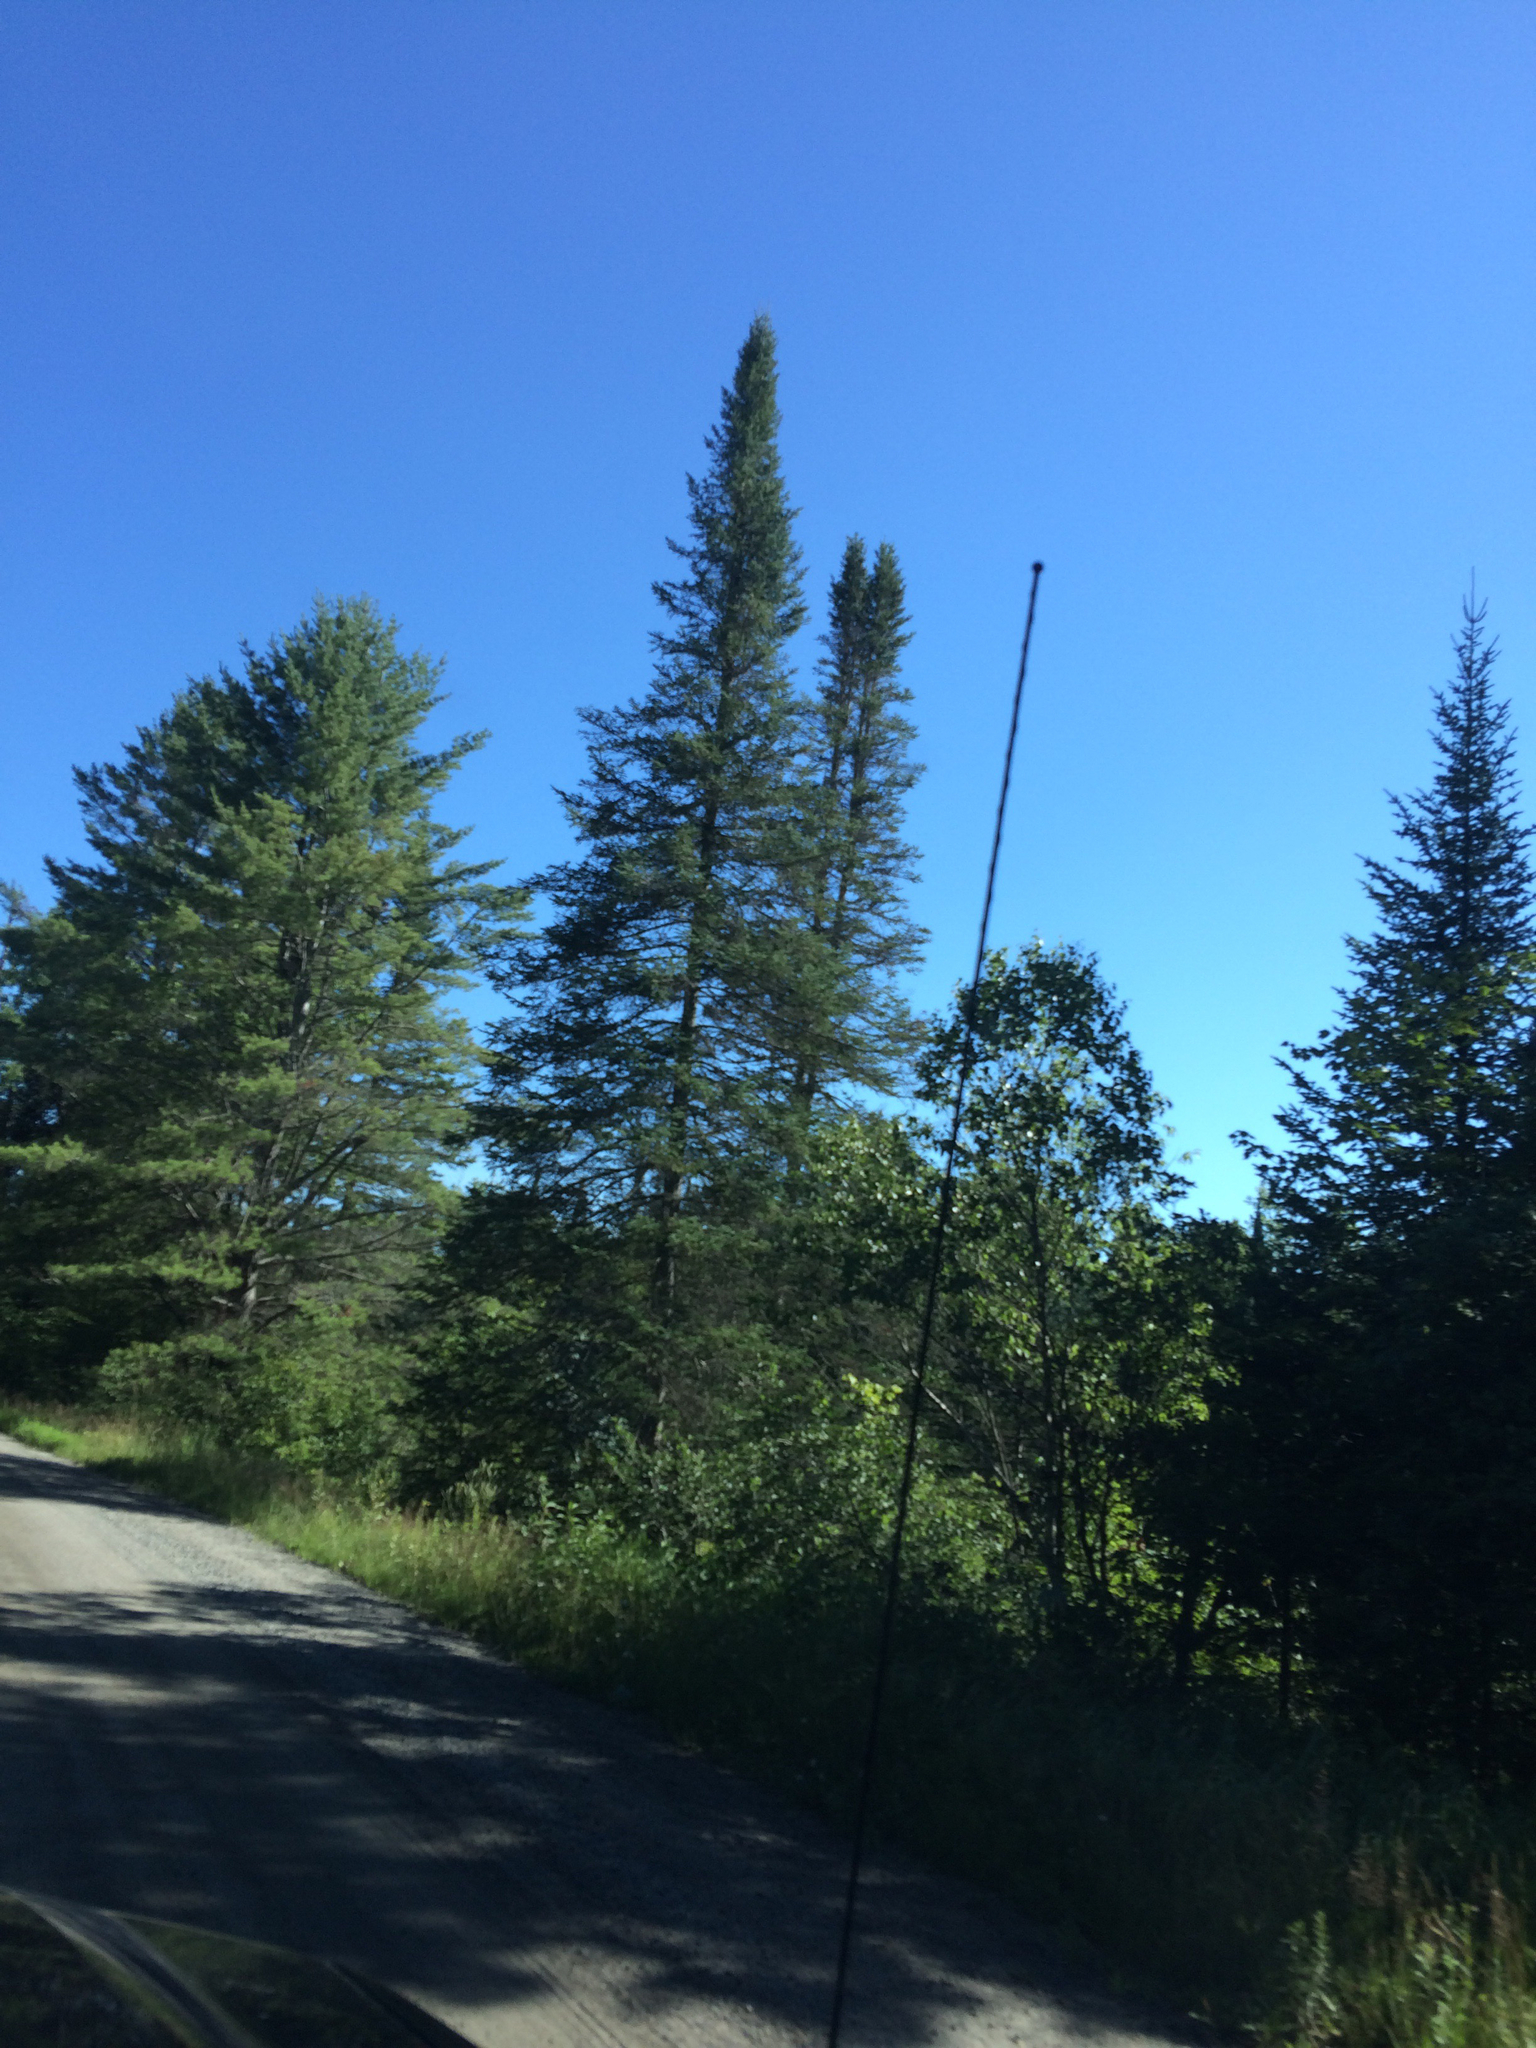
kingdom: Plantae
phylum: Tracheophyta
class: Pinopsida
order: Pinales
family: Pinaceae
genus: Abies
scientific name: Abies balsamea
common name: Balsam fir
